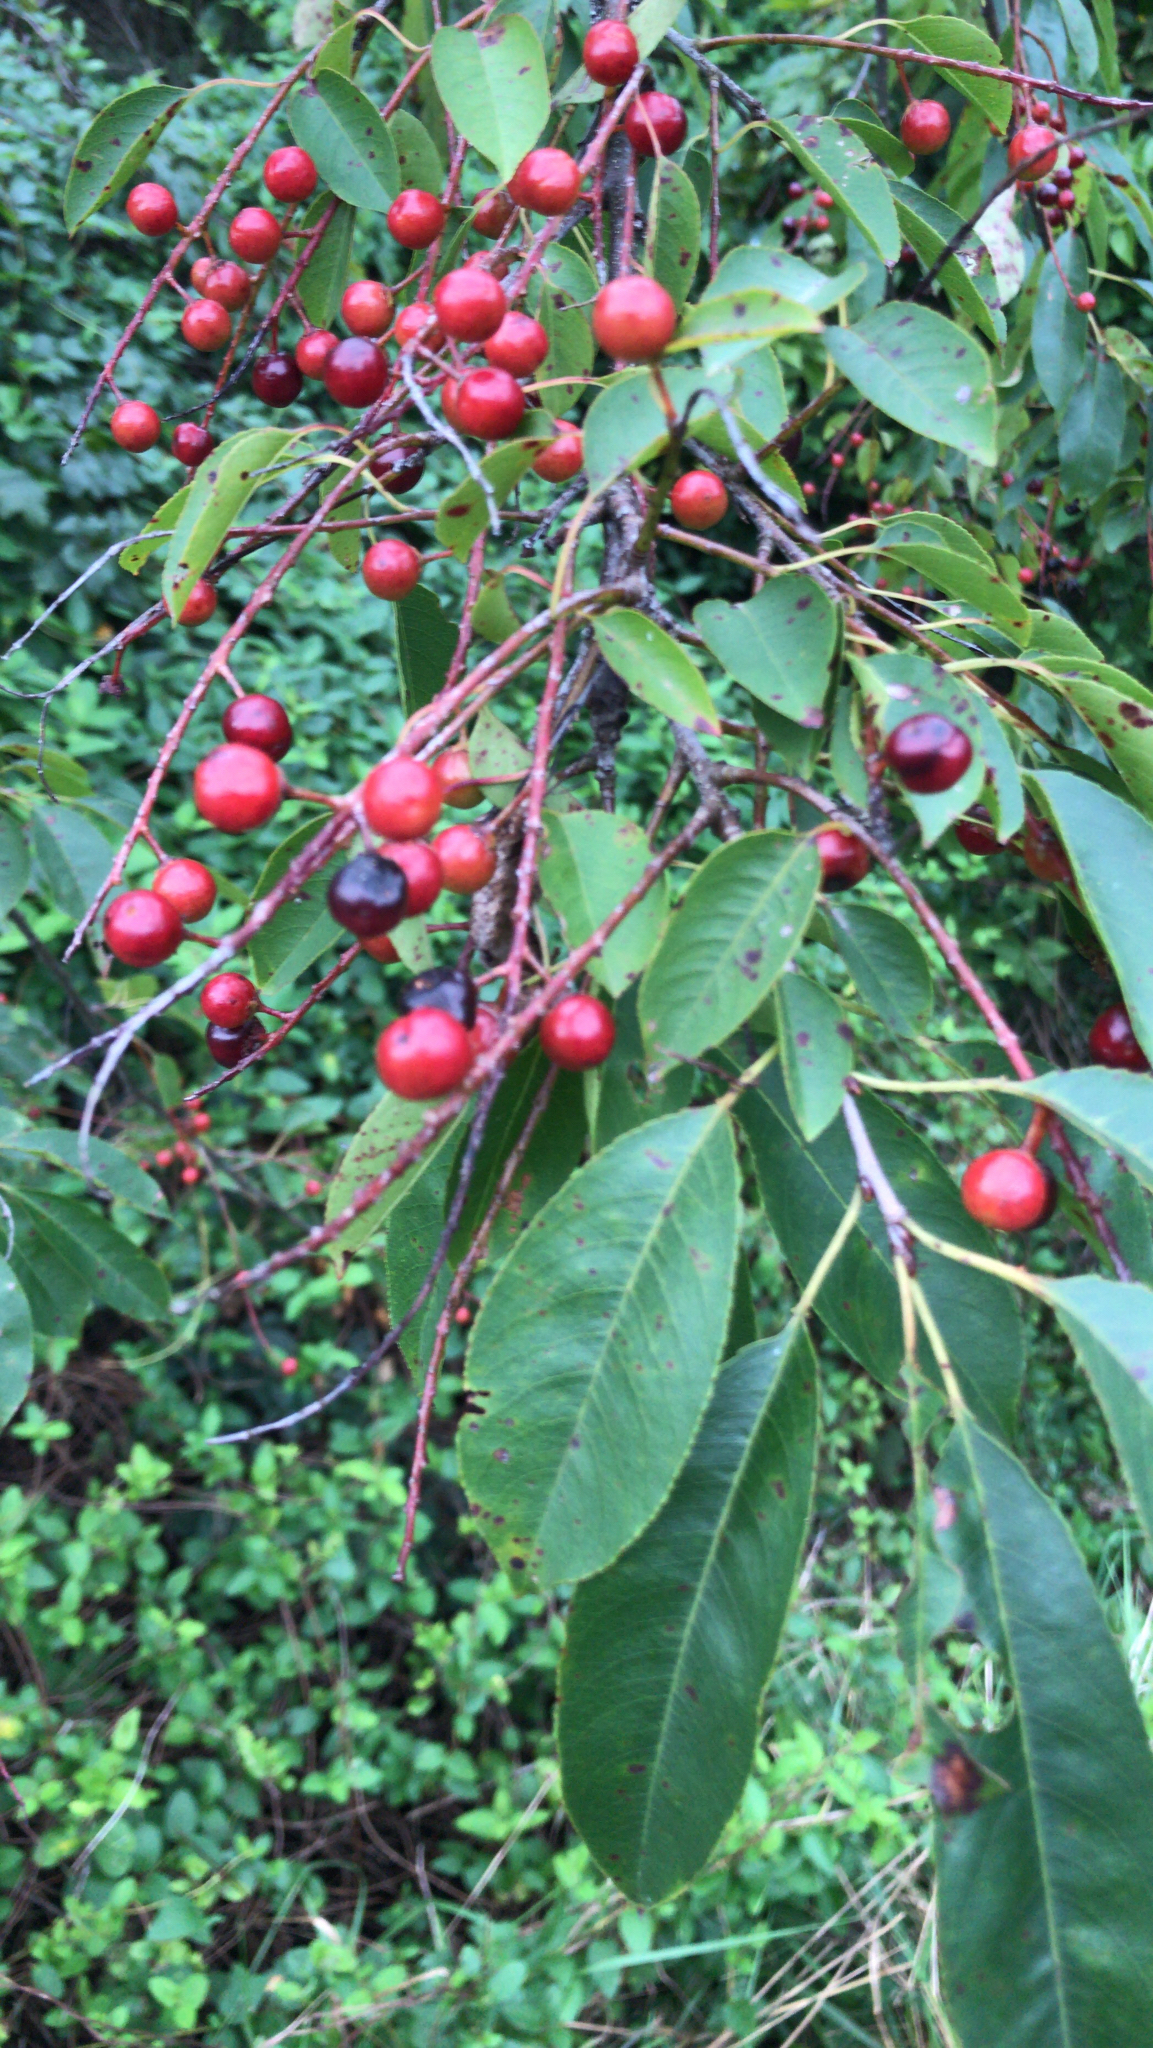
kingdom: Plantae
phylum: Tracheophyta
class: Magnoliopsida
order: Rosales
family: Rosaceae
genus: Prunus
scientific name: Prunus serotina
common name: Black cherry
